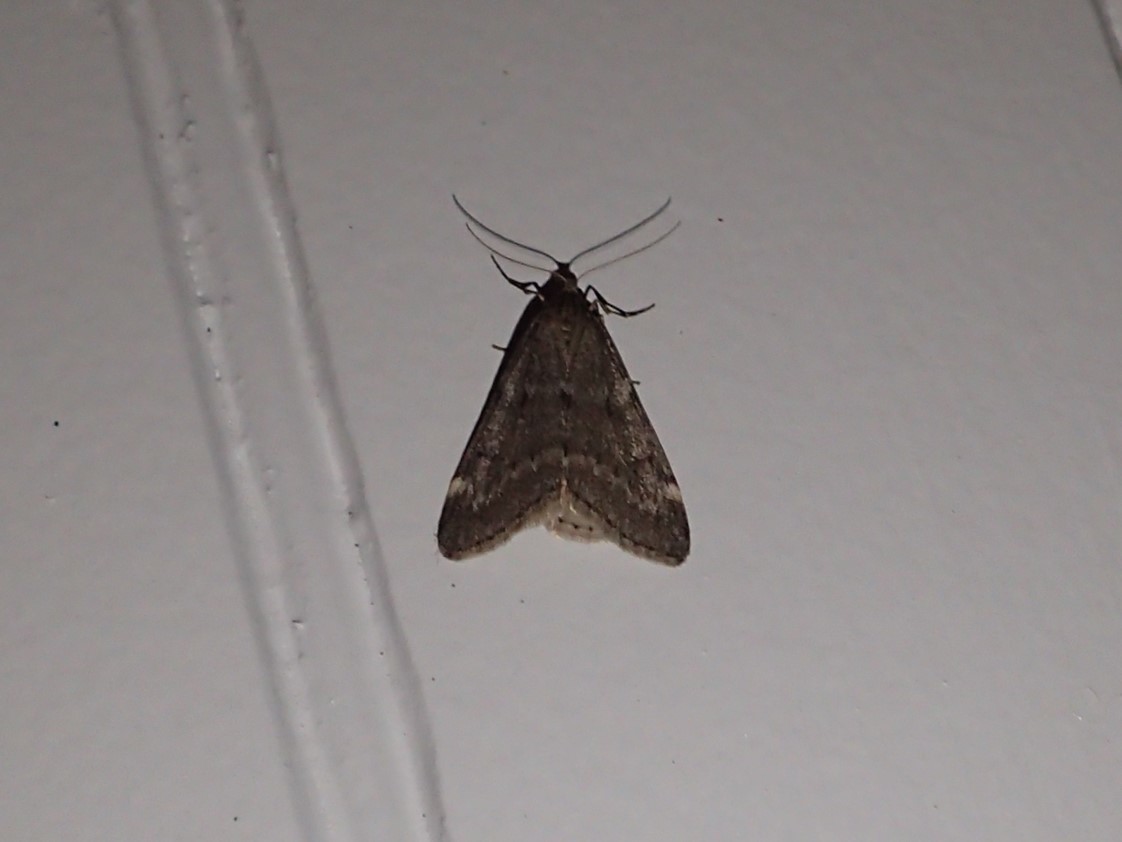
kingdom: Animalia
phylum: Arthropoda
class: Insecta
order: Lepidoptera
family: Geometridae
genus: Alsophila
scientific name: Alsophila pometaria
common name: Fall cankerworm
